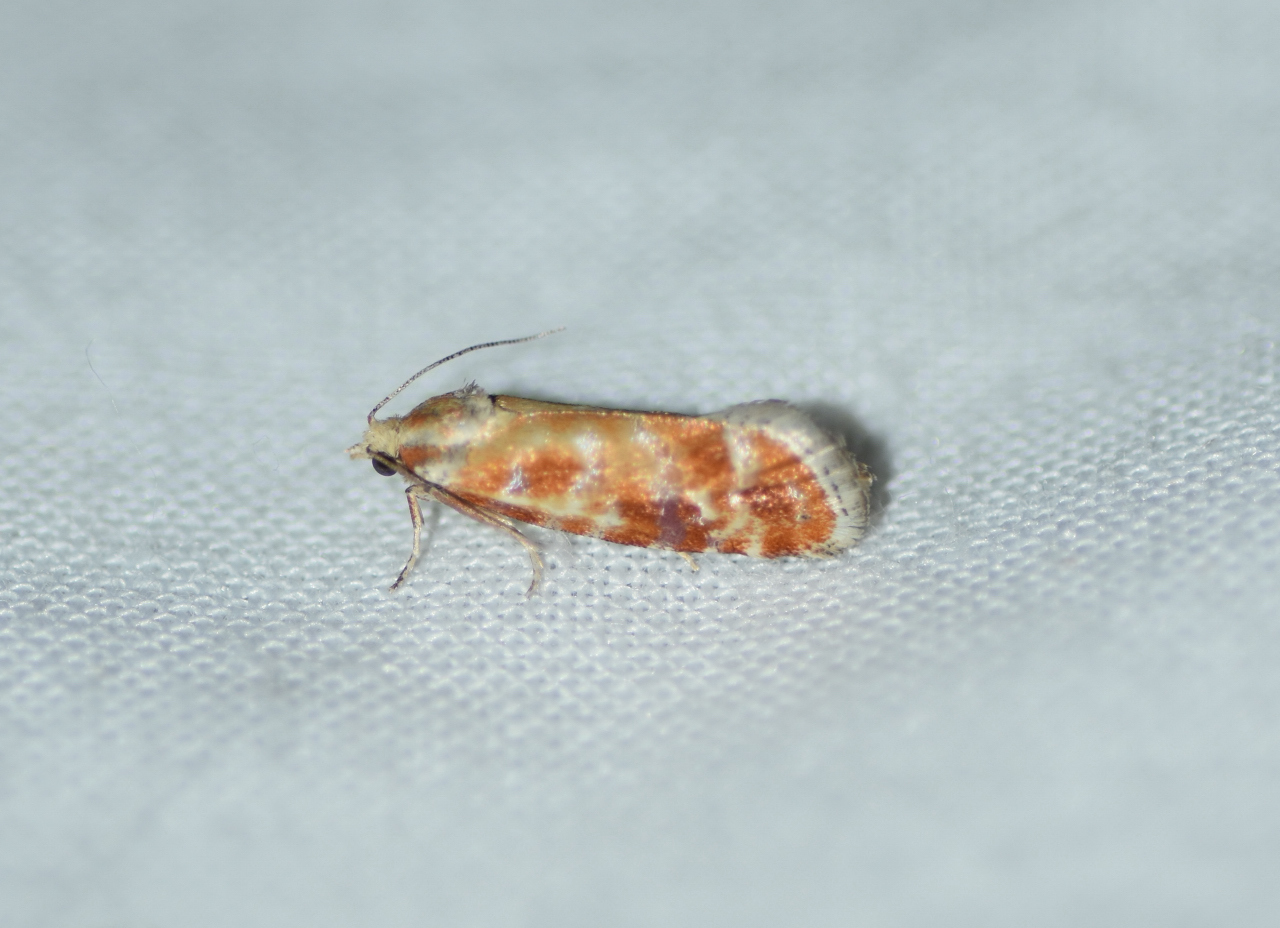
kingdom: Animalia
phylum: Arthropoda
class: Insecta
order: Lepidoptera
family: Tortricidae
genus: Rhyacionia
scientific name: Rhyacionia buoliana
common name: European pine shoot moth
